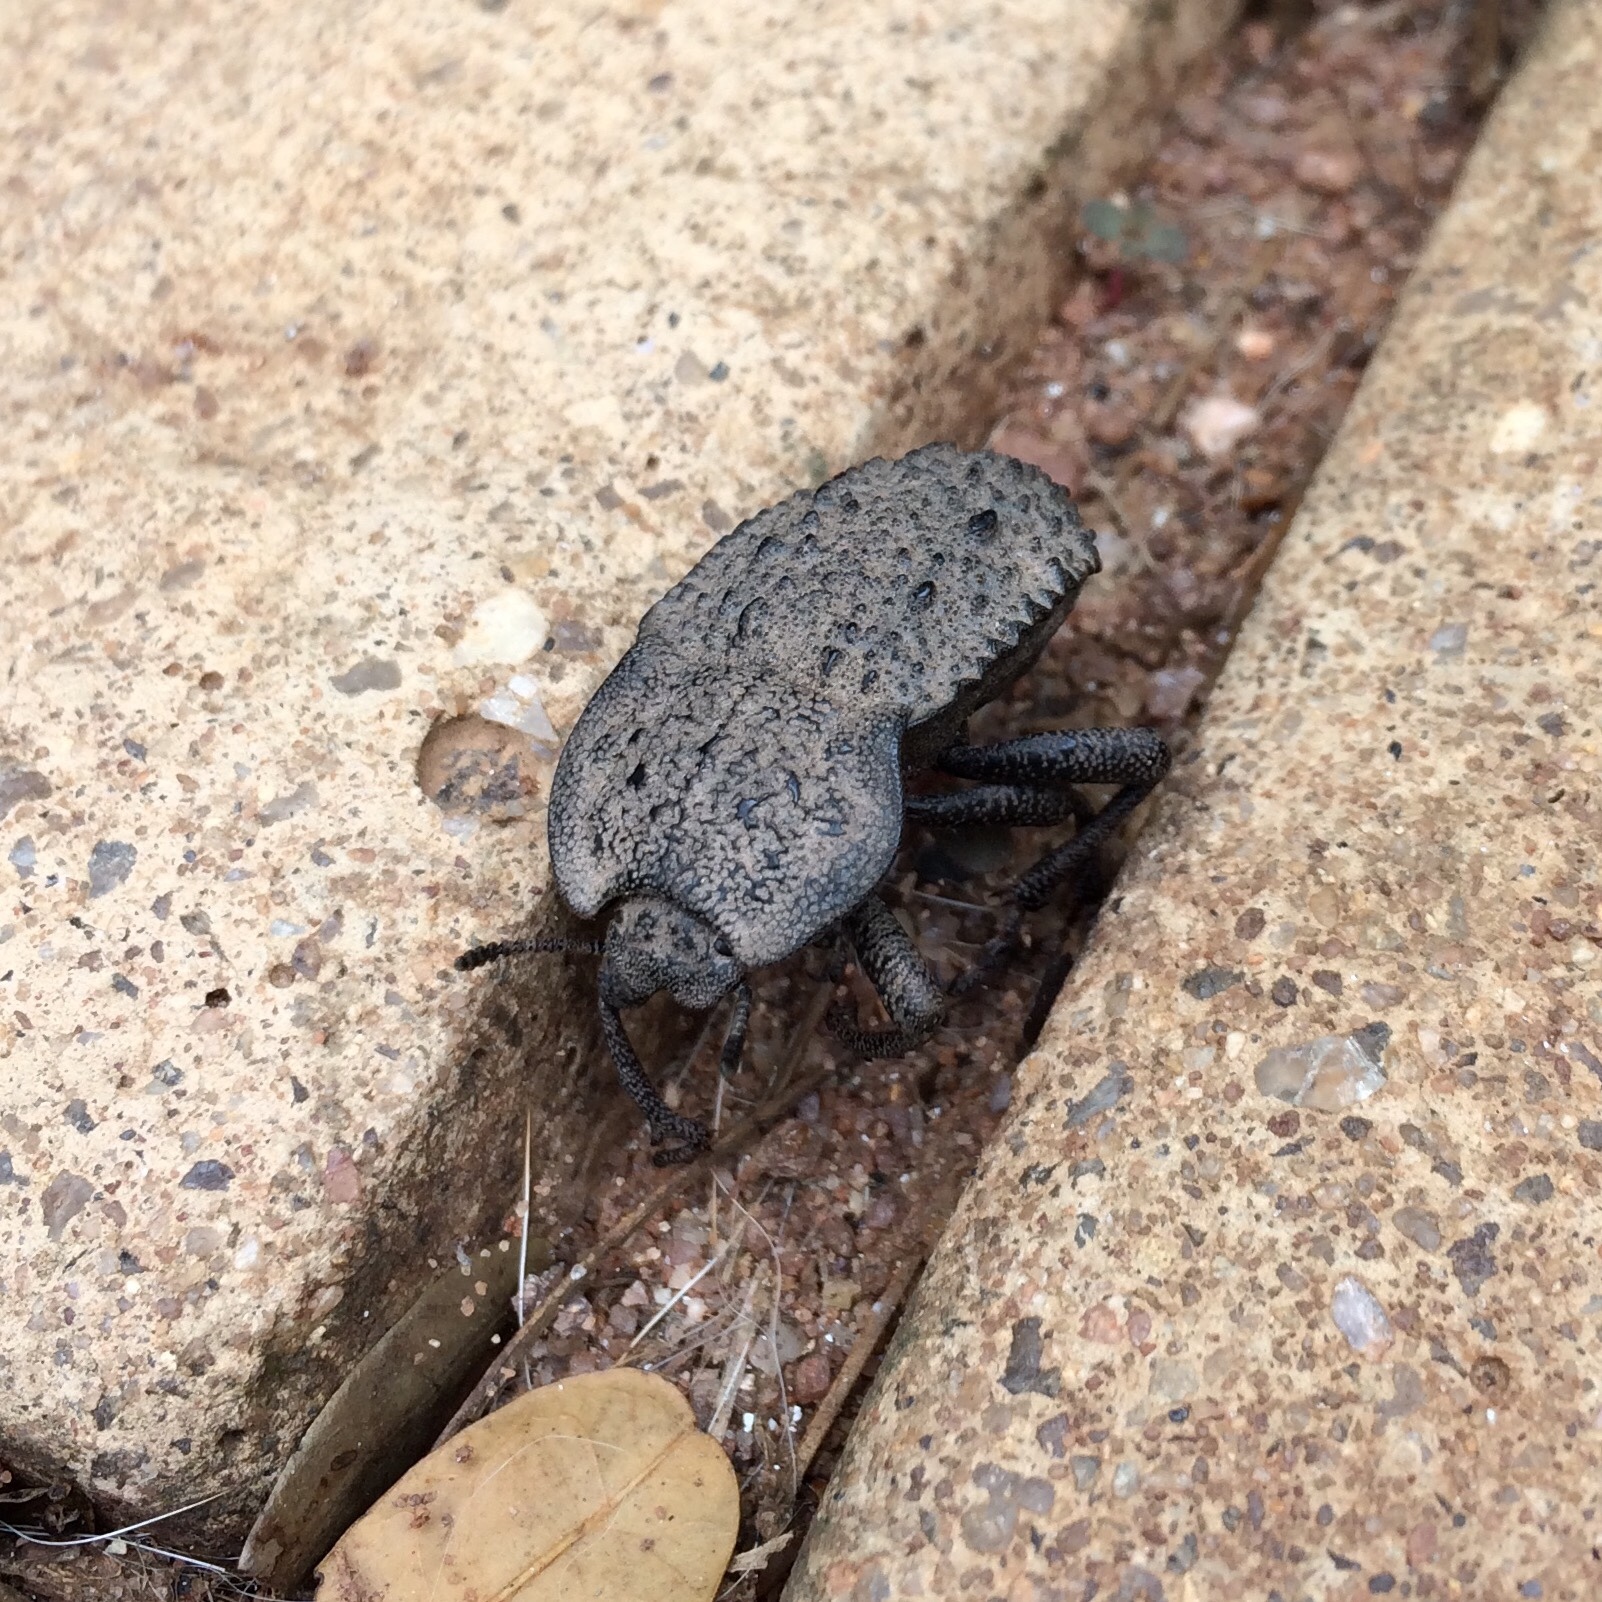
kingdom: Animalia
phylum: Arthropoda
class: Insecta
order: Coleoptera
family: Tenebrionidae
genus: Anomalipus
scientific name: Anomalipus
